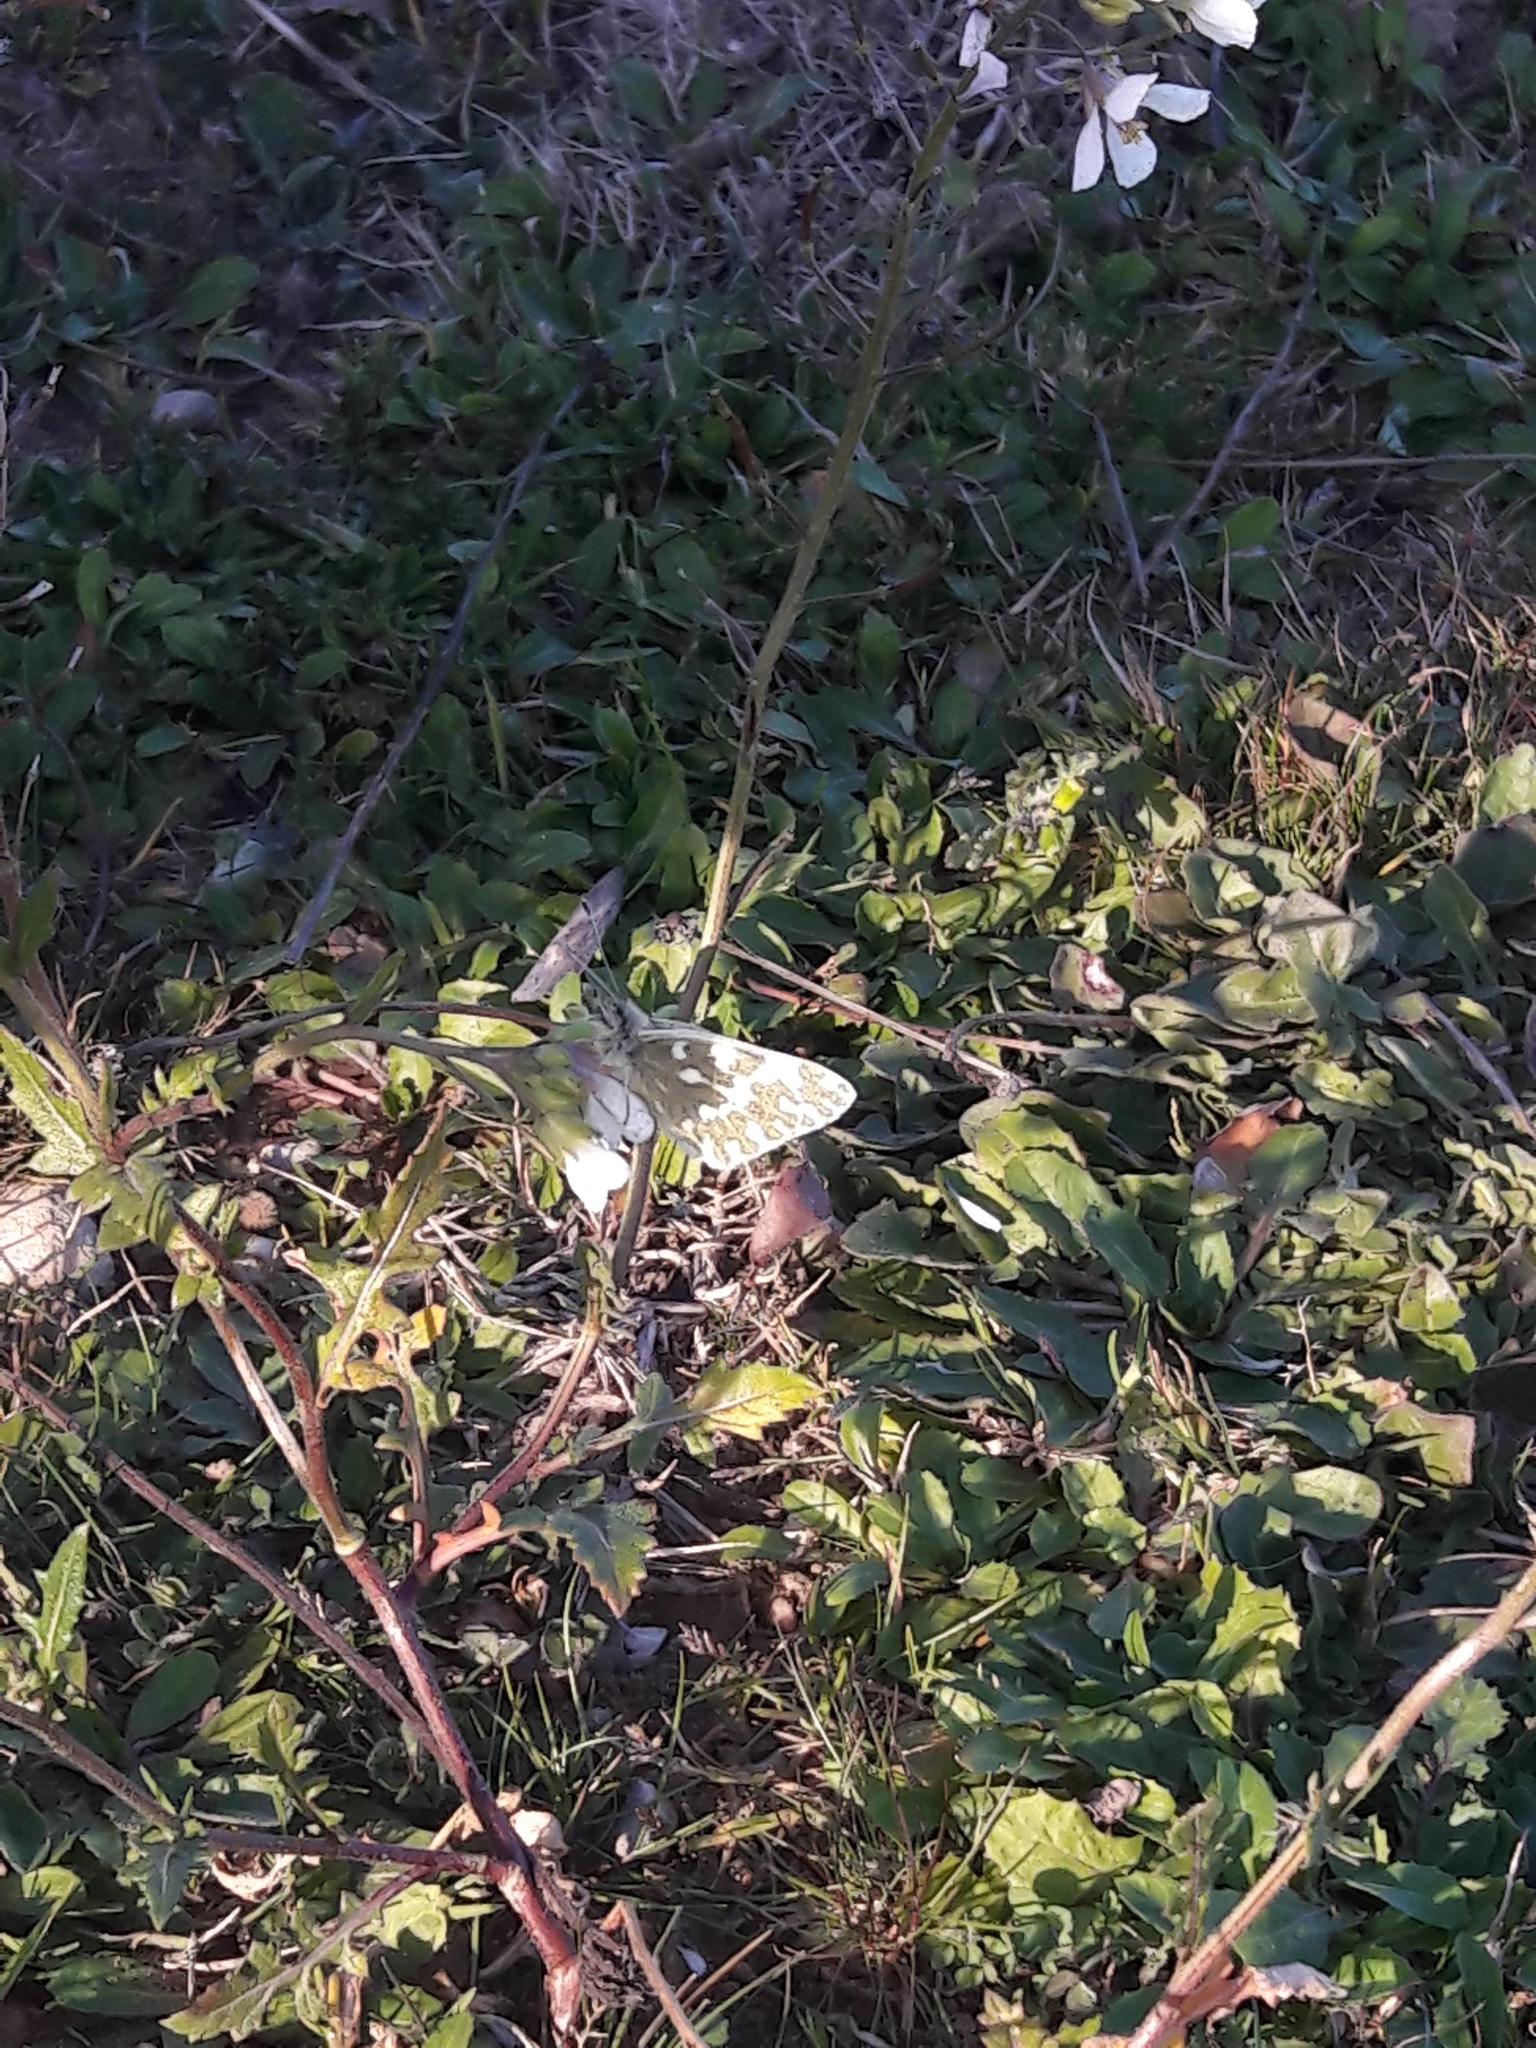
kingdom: Animalia
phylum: Arthropoda
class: Insecta
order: Lepidoptera
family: Pieridae
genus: Pontia
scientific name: Pontia daplidice
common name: Bath white
